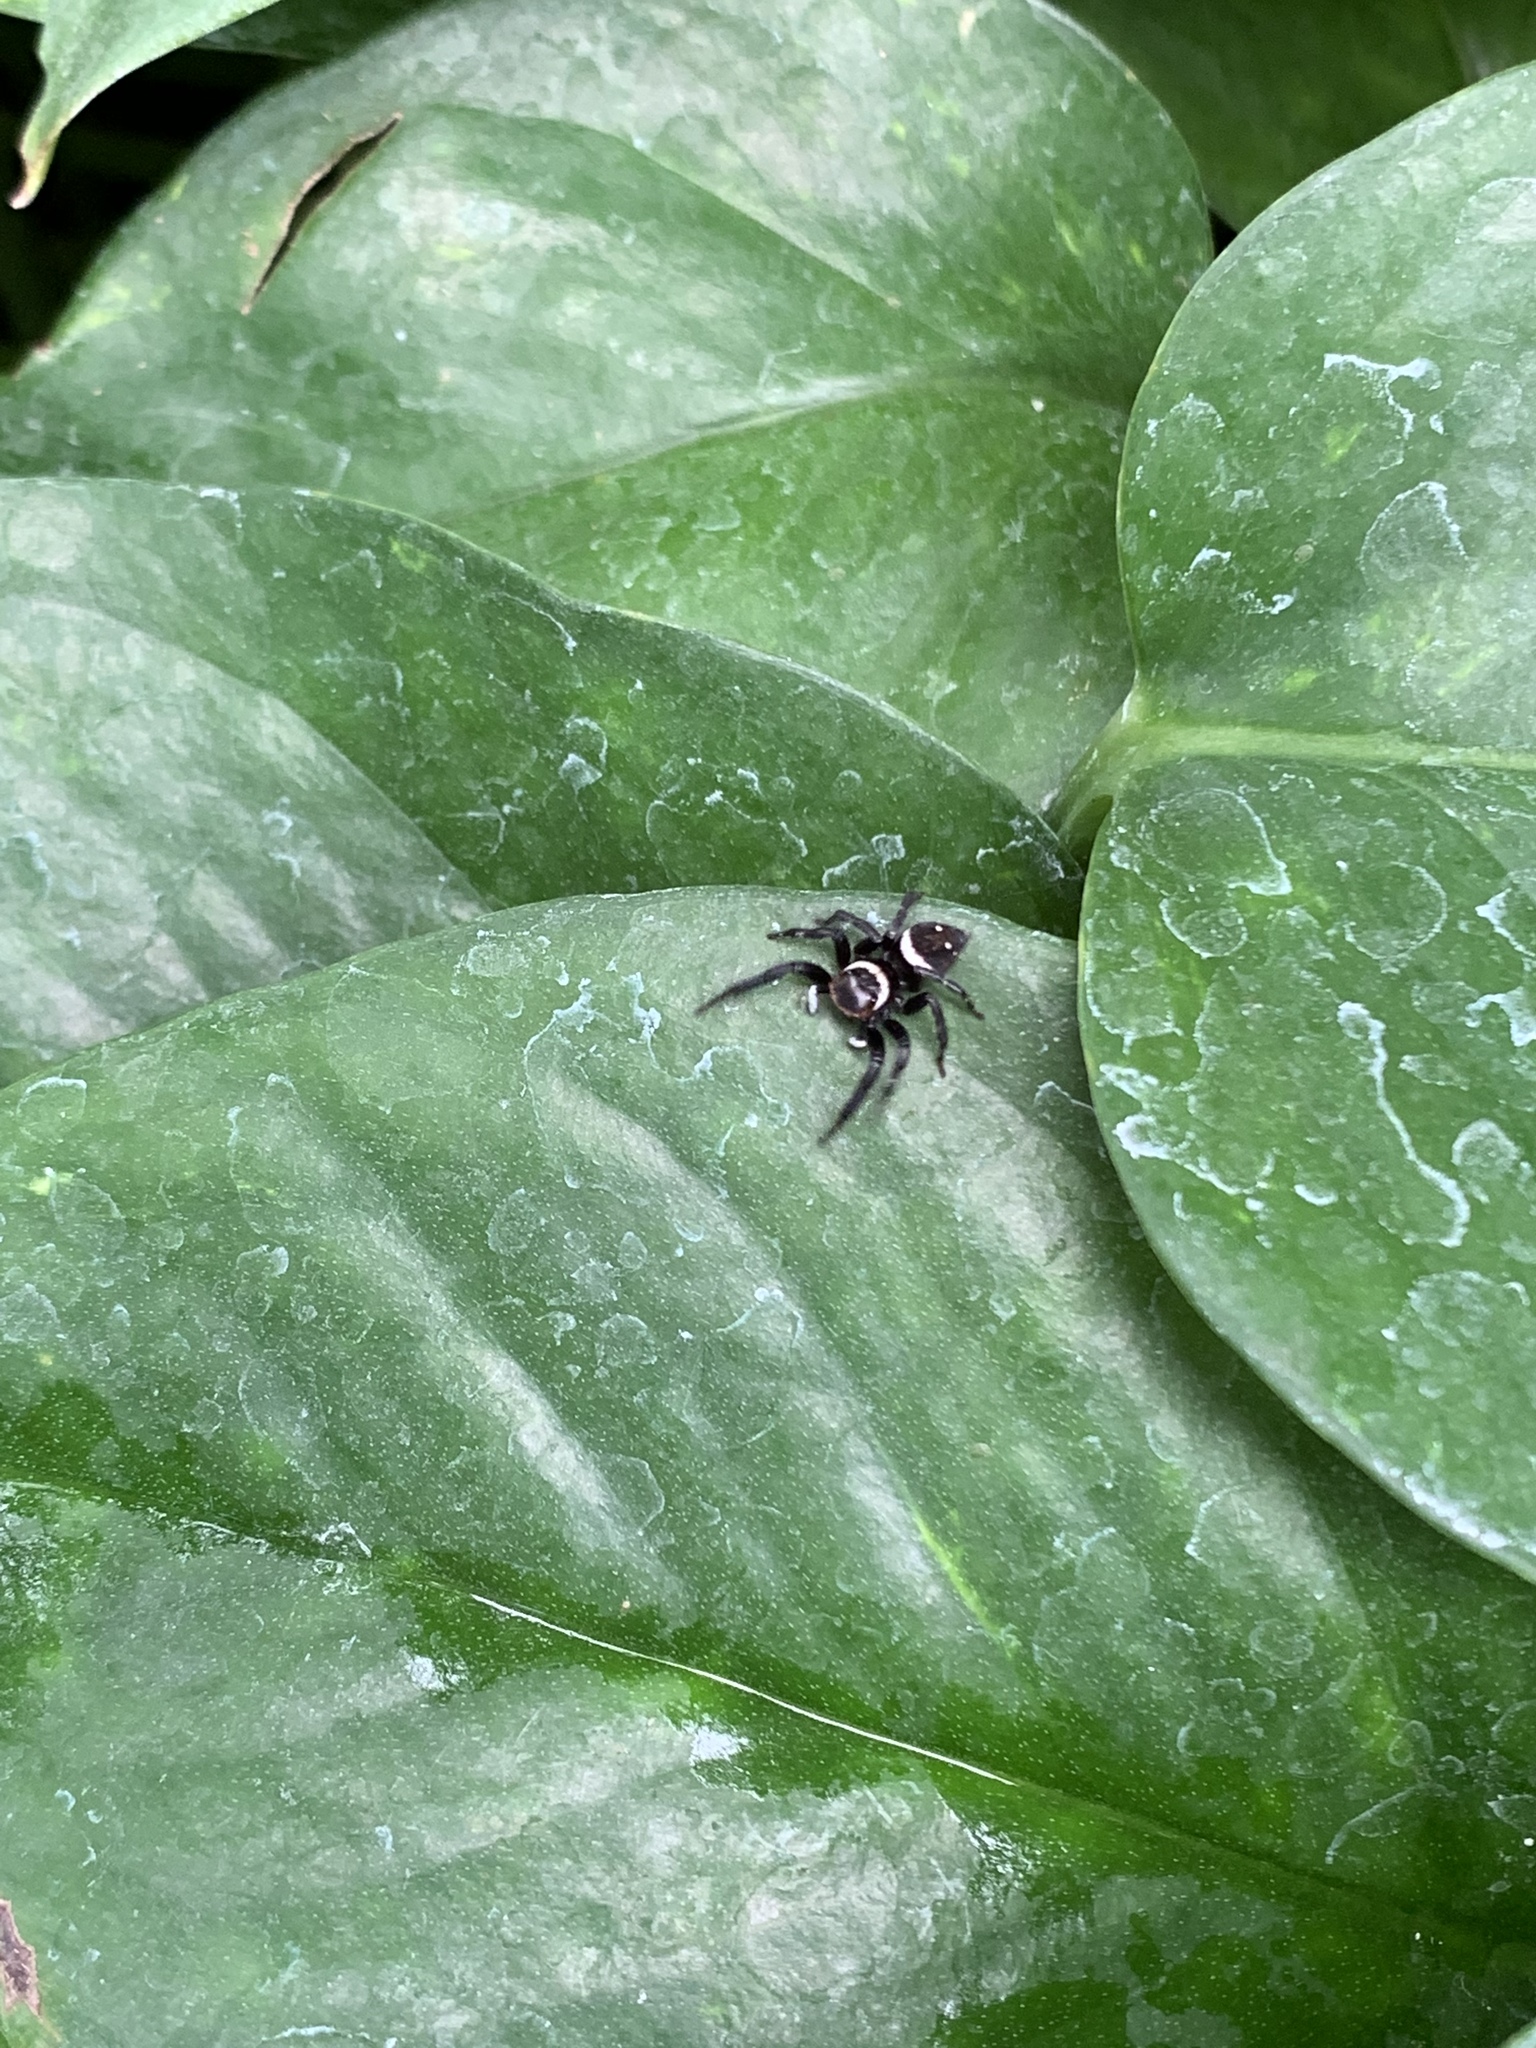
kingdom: Animalia
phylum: Arthropoda
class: Arachnida
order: Araneae
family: Salticidae
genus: Hasarius
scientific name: Hasarius adansoni
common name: Jumping spider
